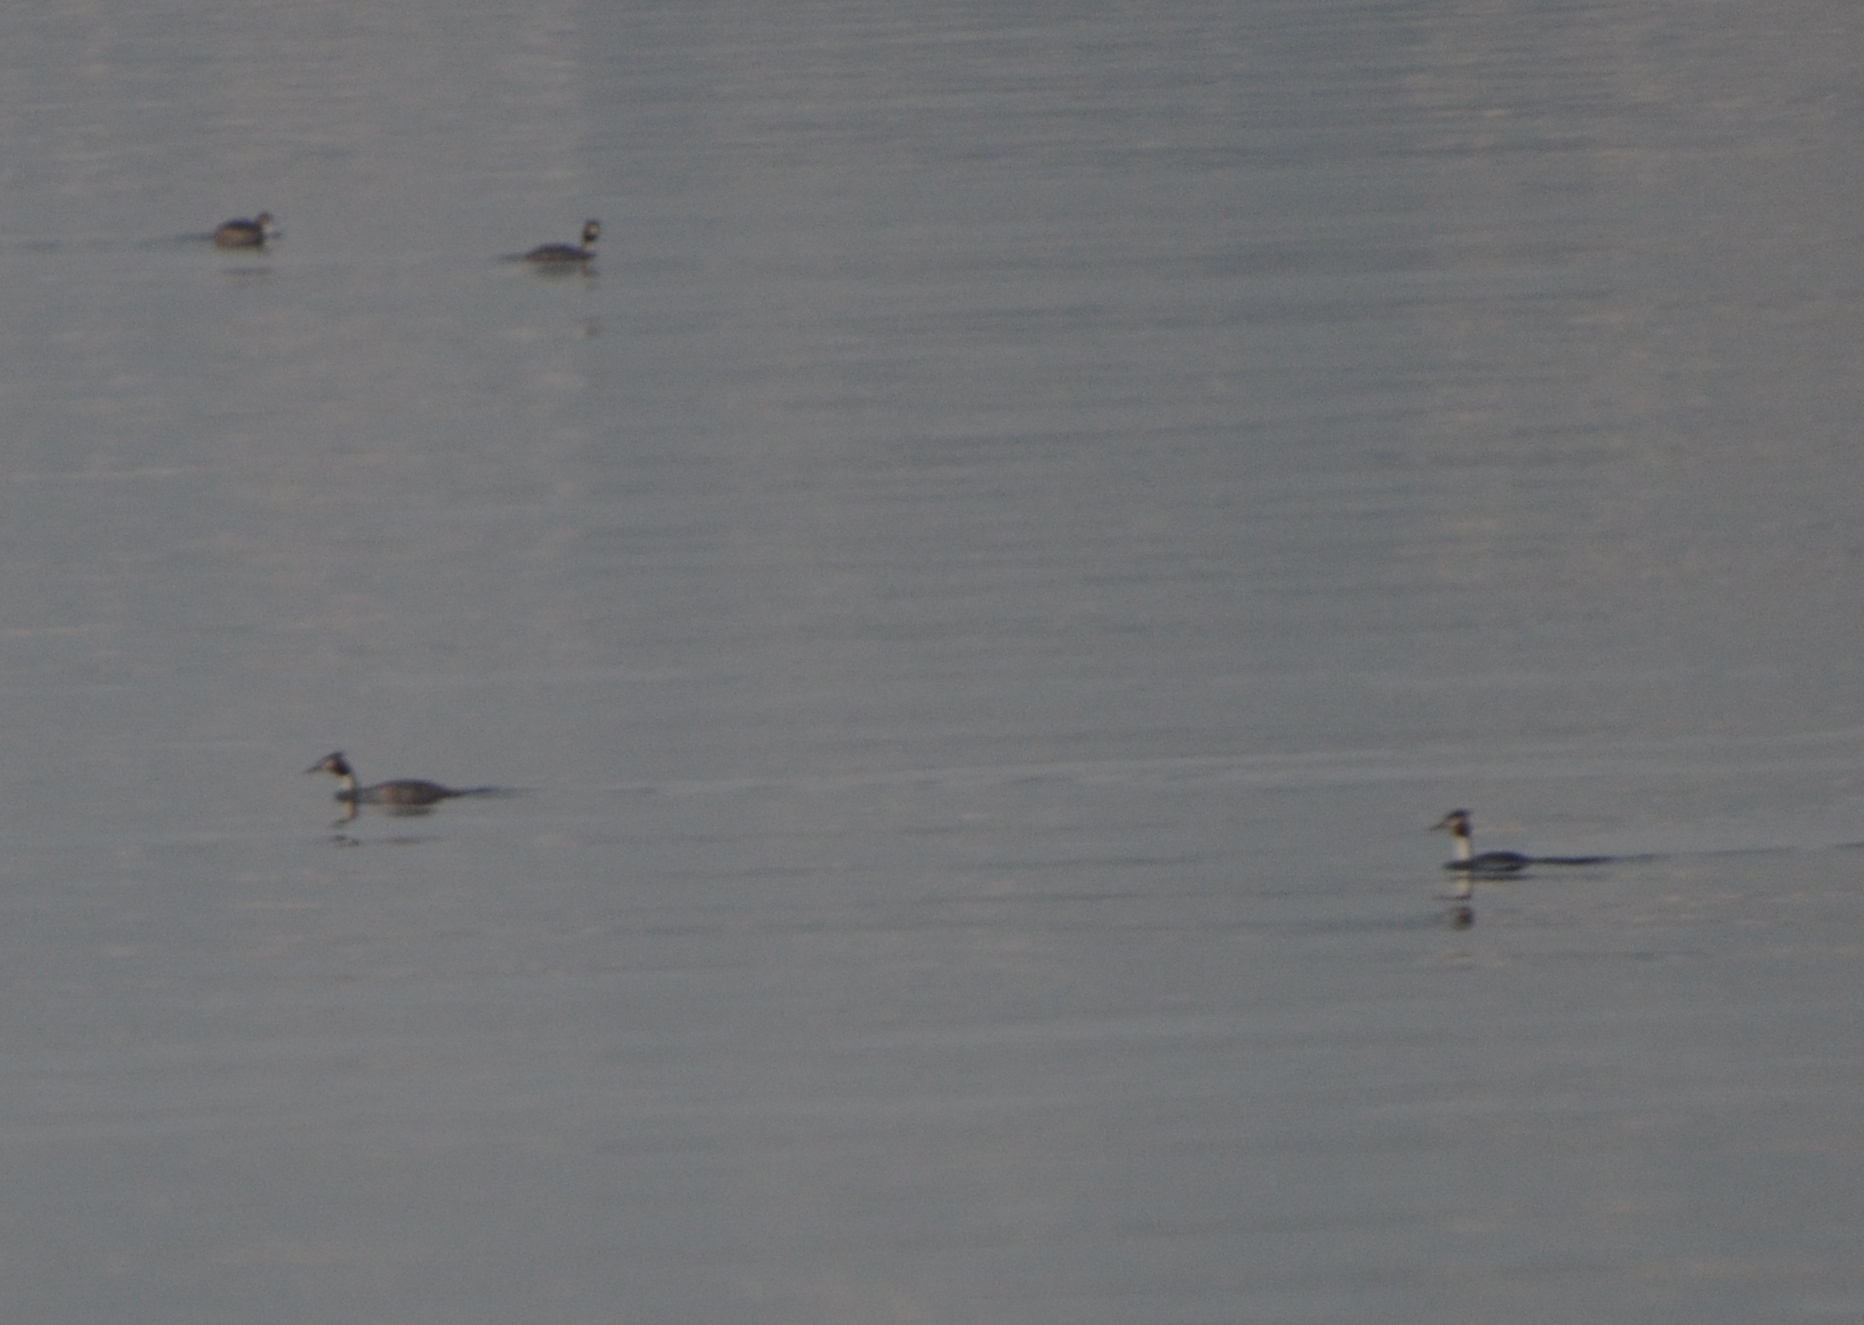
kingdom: Animalia
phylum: Chordata
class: Aves
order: Podicipediformes
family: Podicipedidae
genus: Podiceps
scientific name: Podiceps cristatus
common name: Great crested grebe
